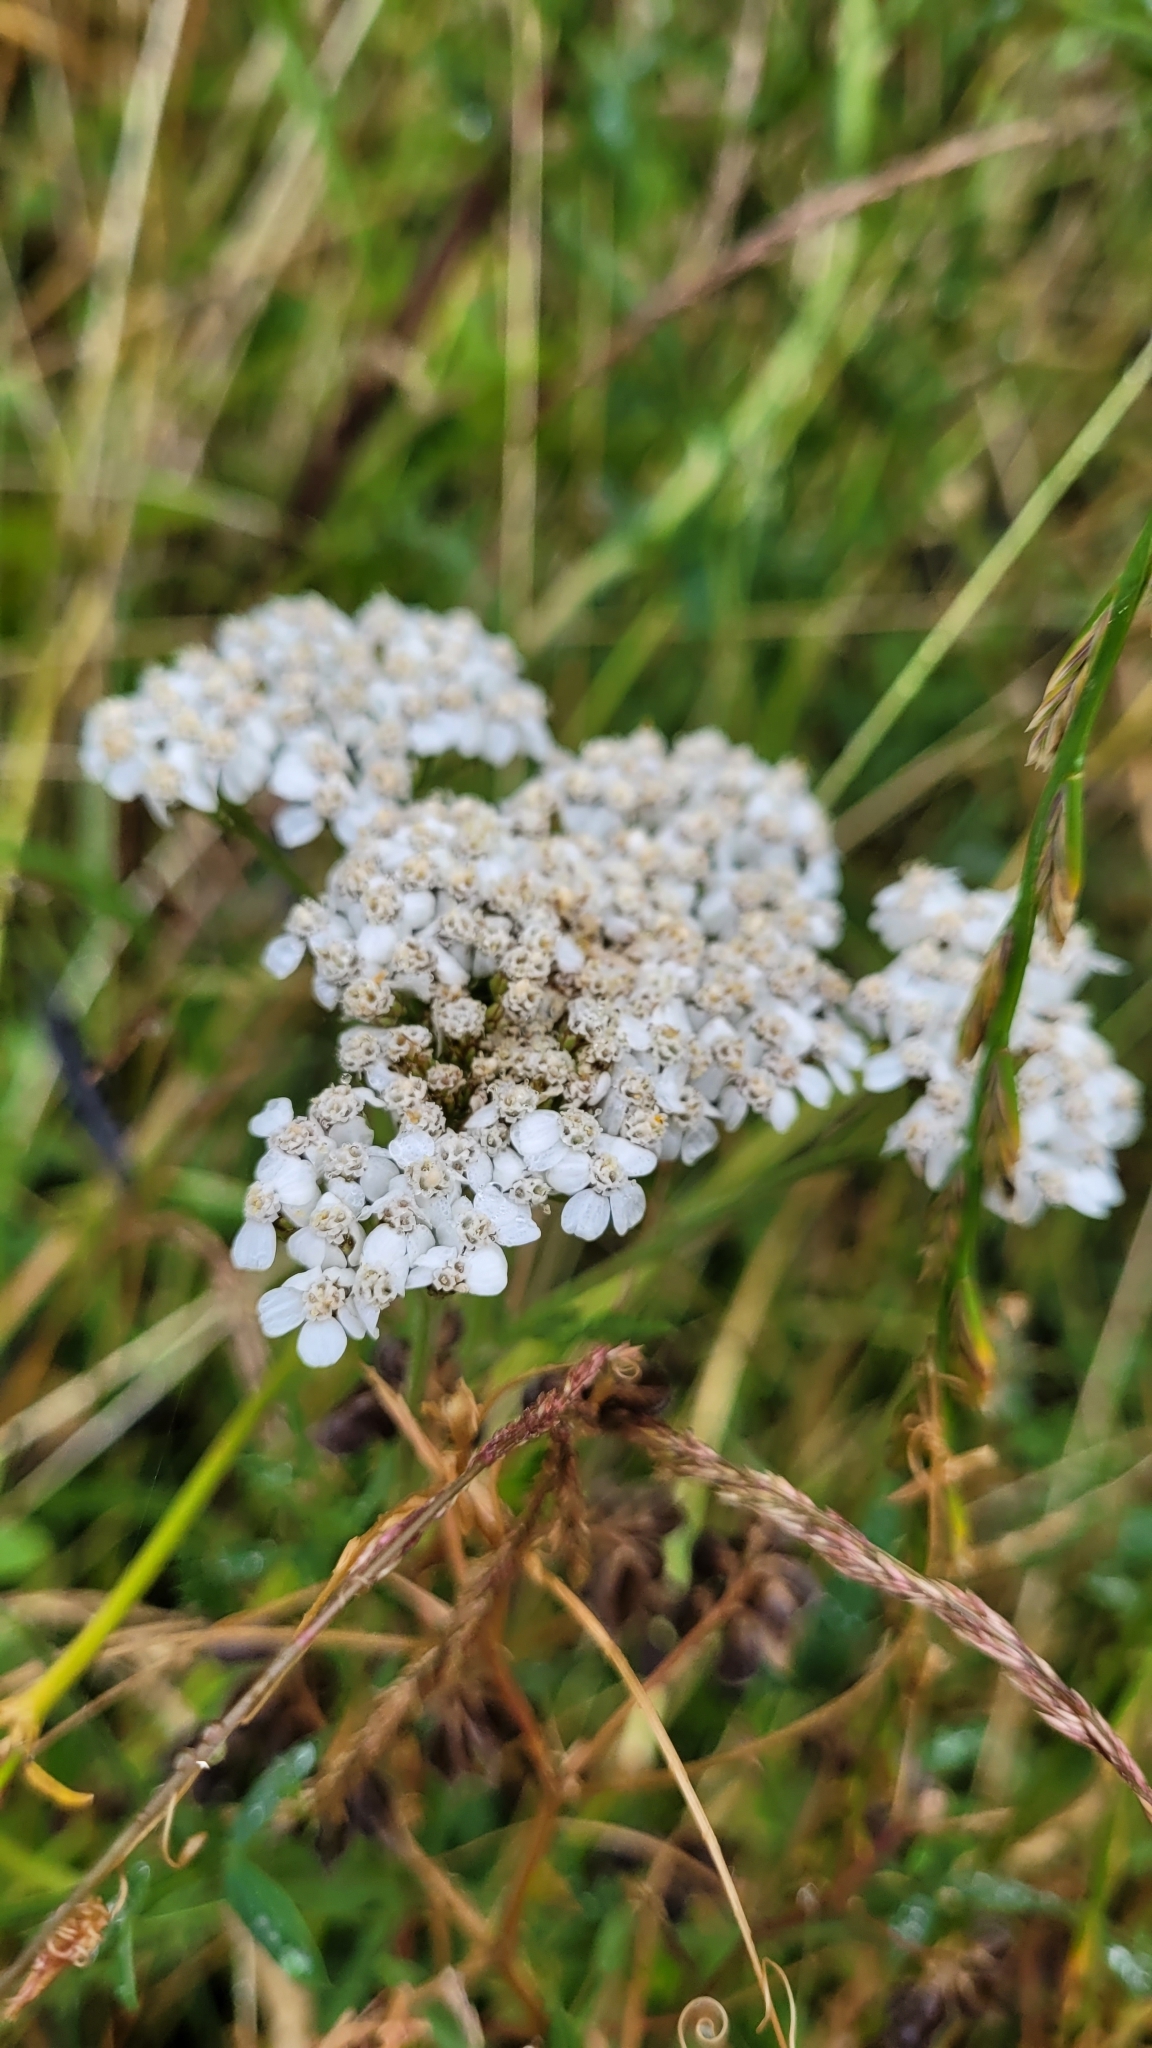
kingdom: Plantae
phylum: Tracheophyta
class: Magnoliopsida
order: Asterales
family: Asteraceae
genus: Achillea
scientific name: Achillea millefolium
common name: Yarrow
